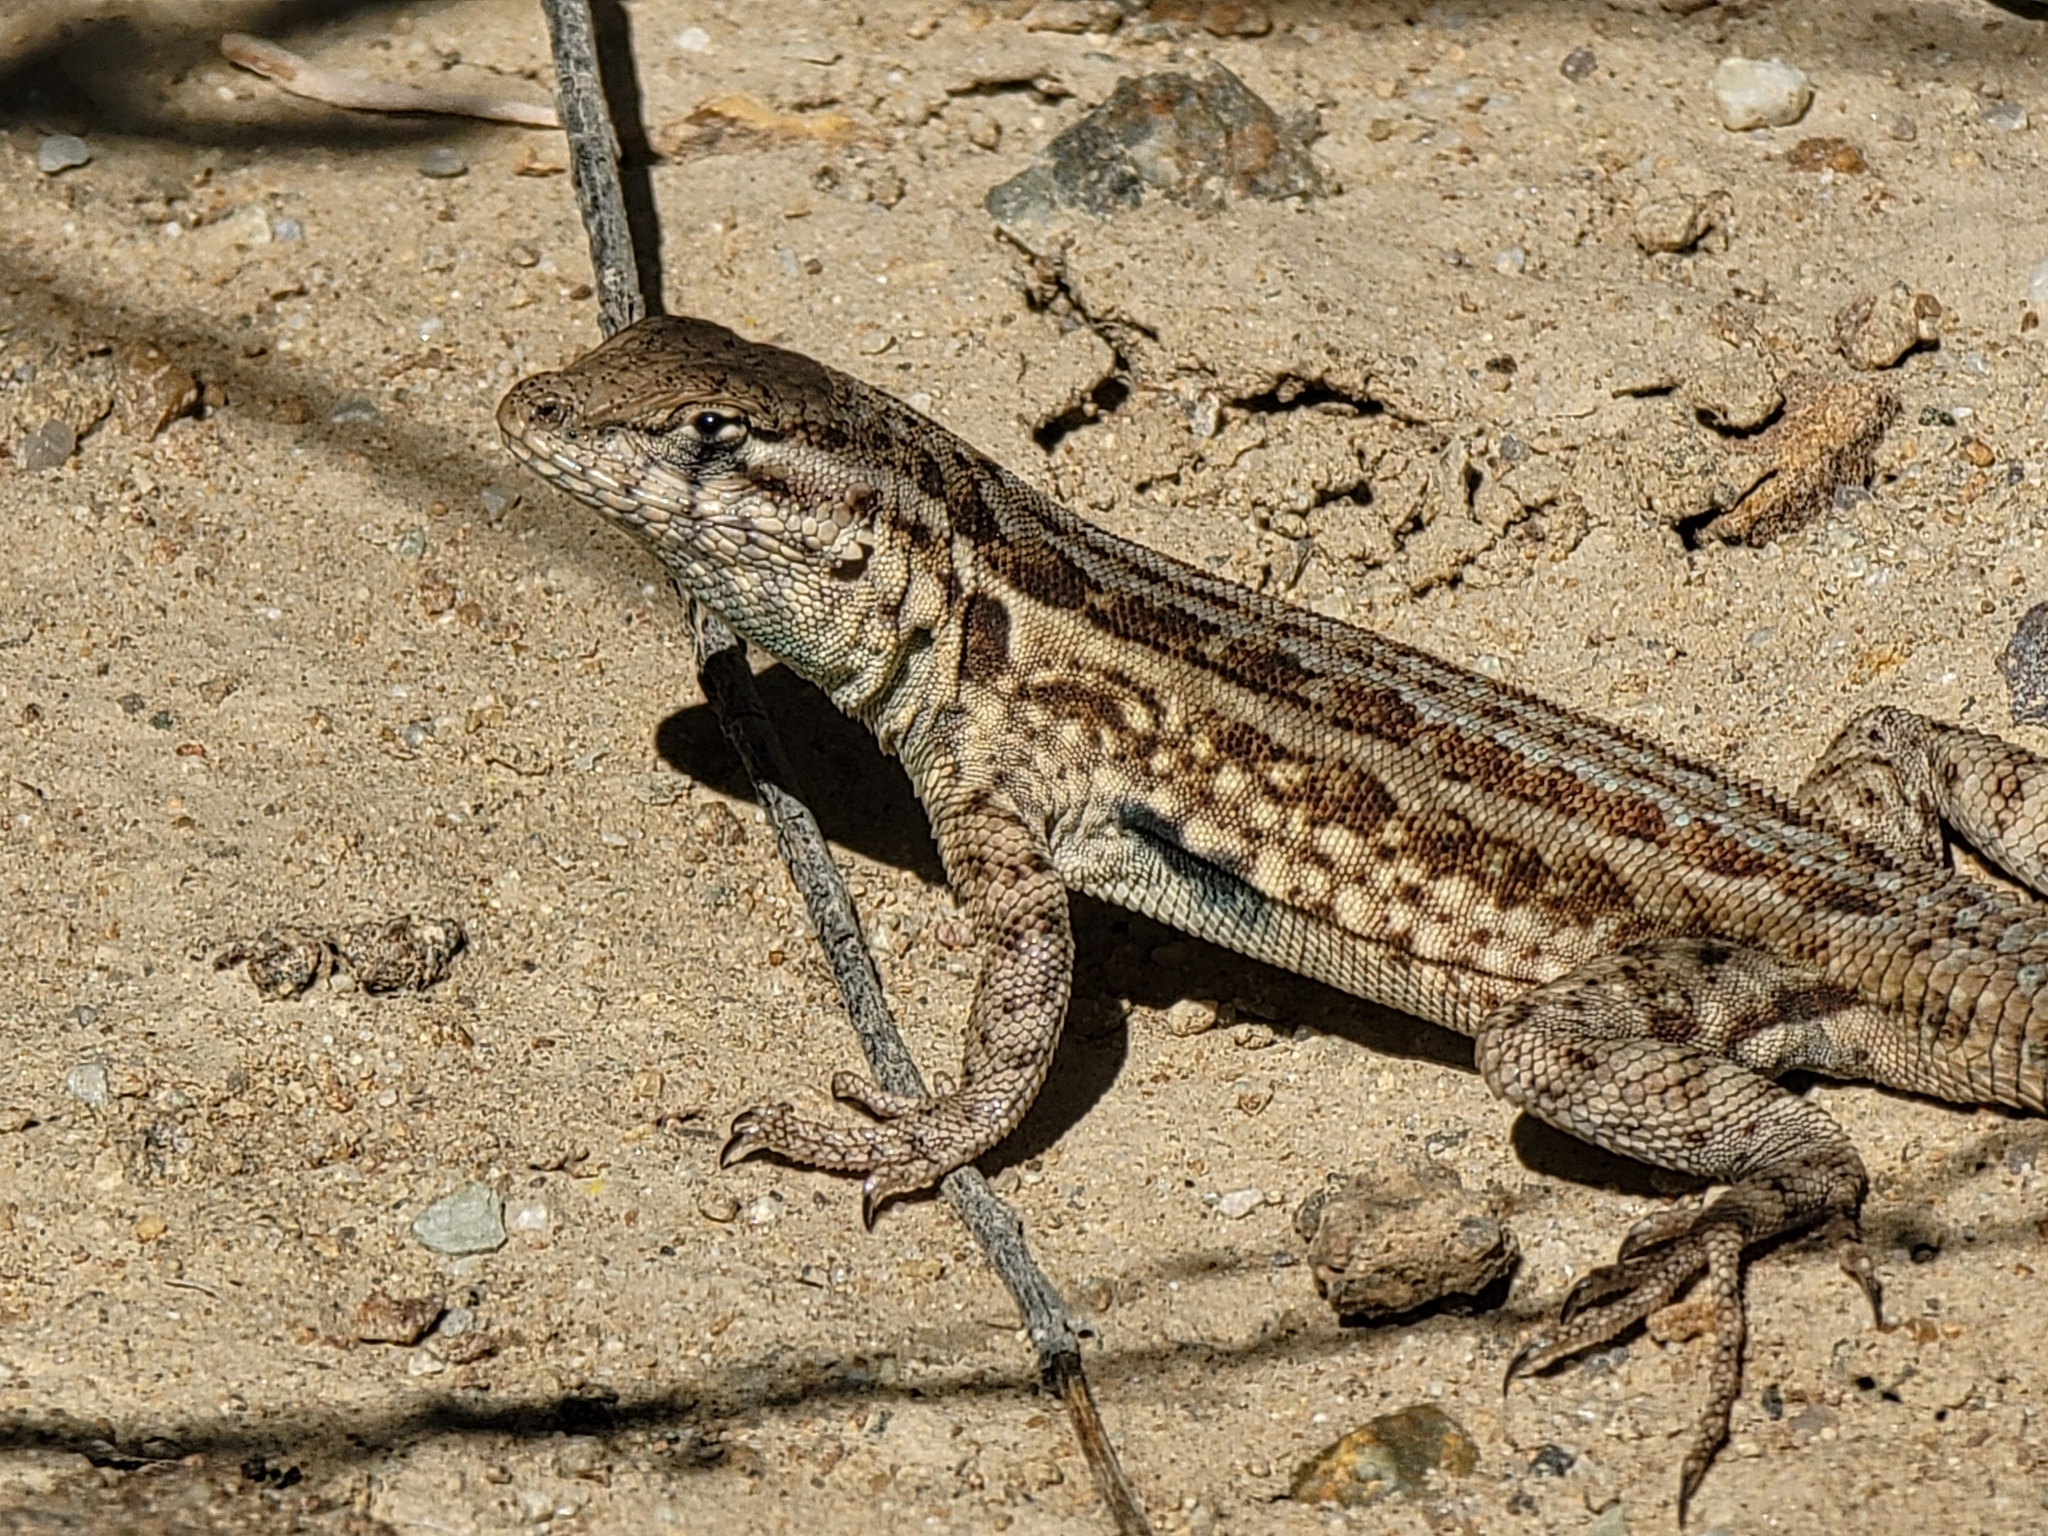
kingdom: Animalia
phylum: Chordata
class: Squamata
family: Phrynosomatidae
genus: Uta
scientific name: Uta stansburiana
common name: Side-blotched lizard
